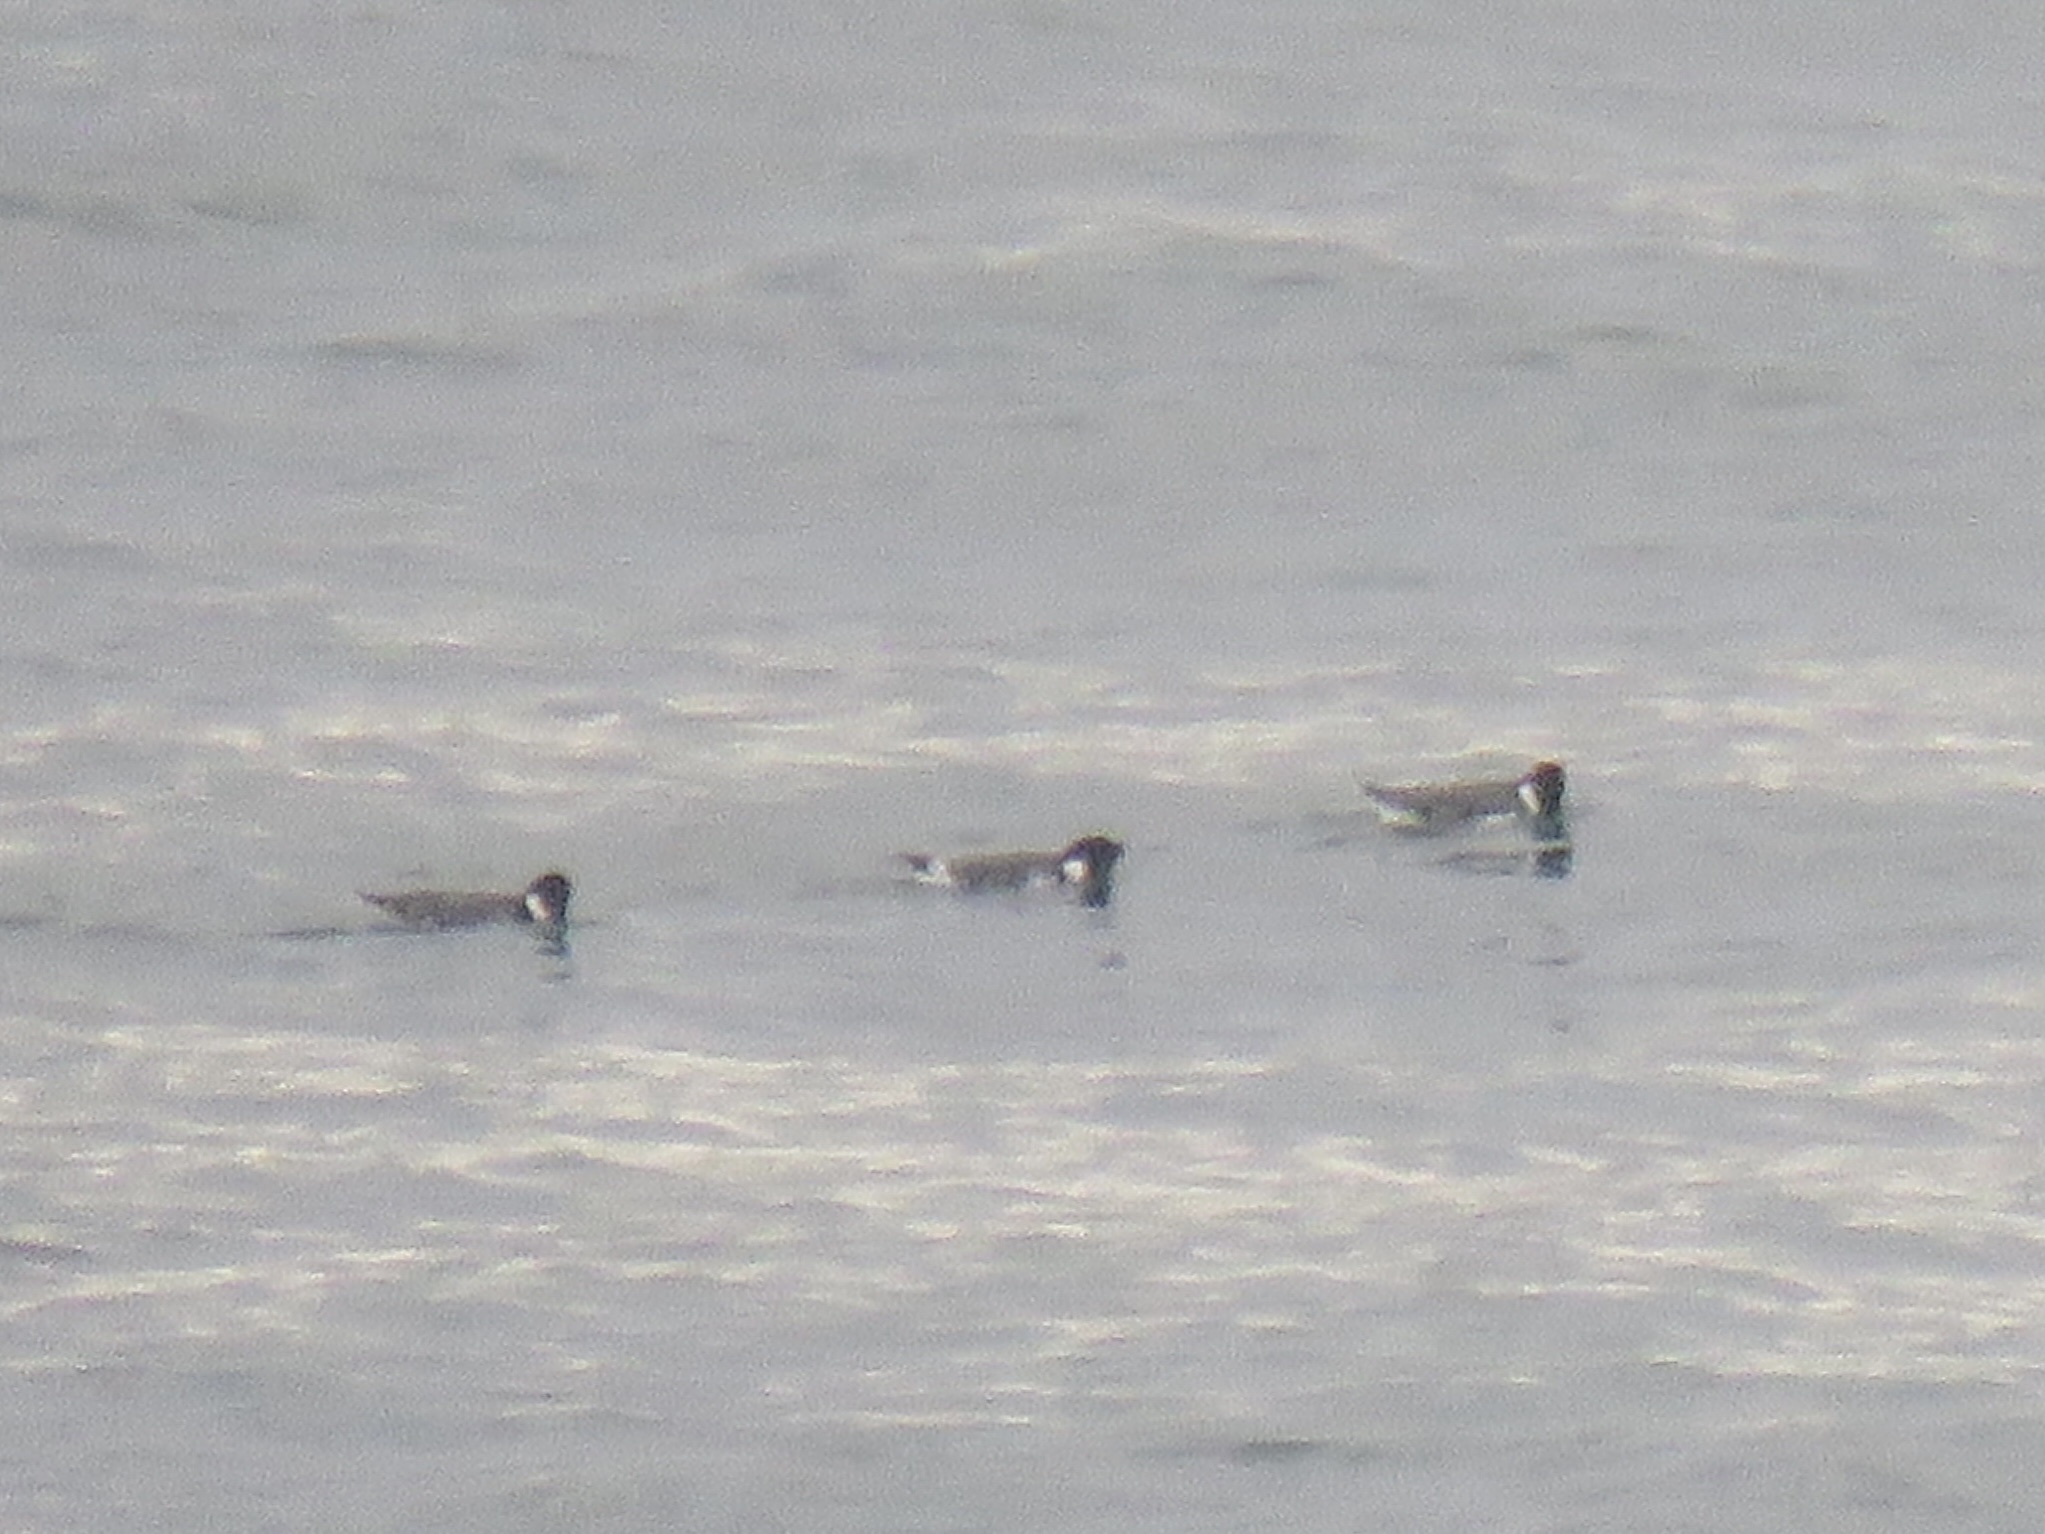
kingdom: Animalia
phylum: Chordata
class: Aves
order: Charadriiformes
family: Alcidae
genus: Synthliboramphus
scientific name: Synthliboramphus antiquus
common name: Ancient murrelet
